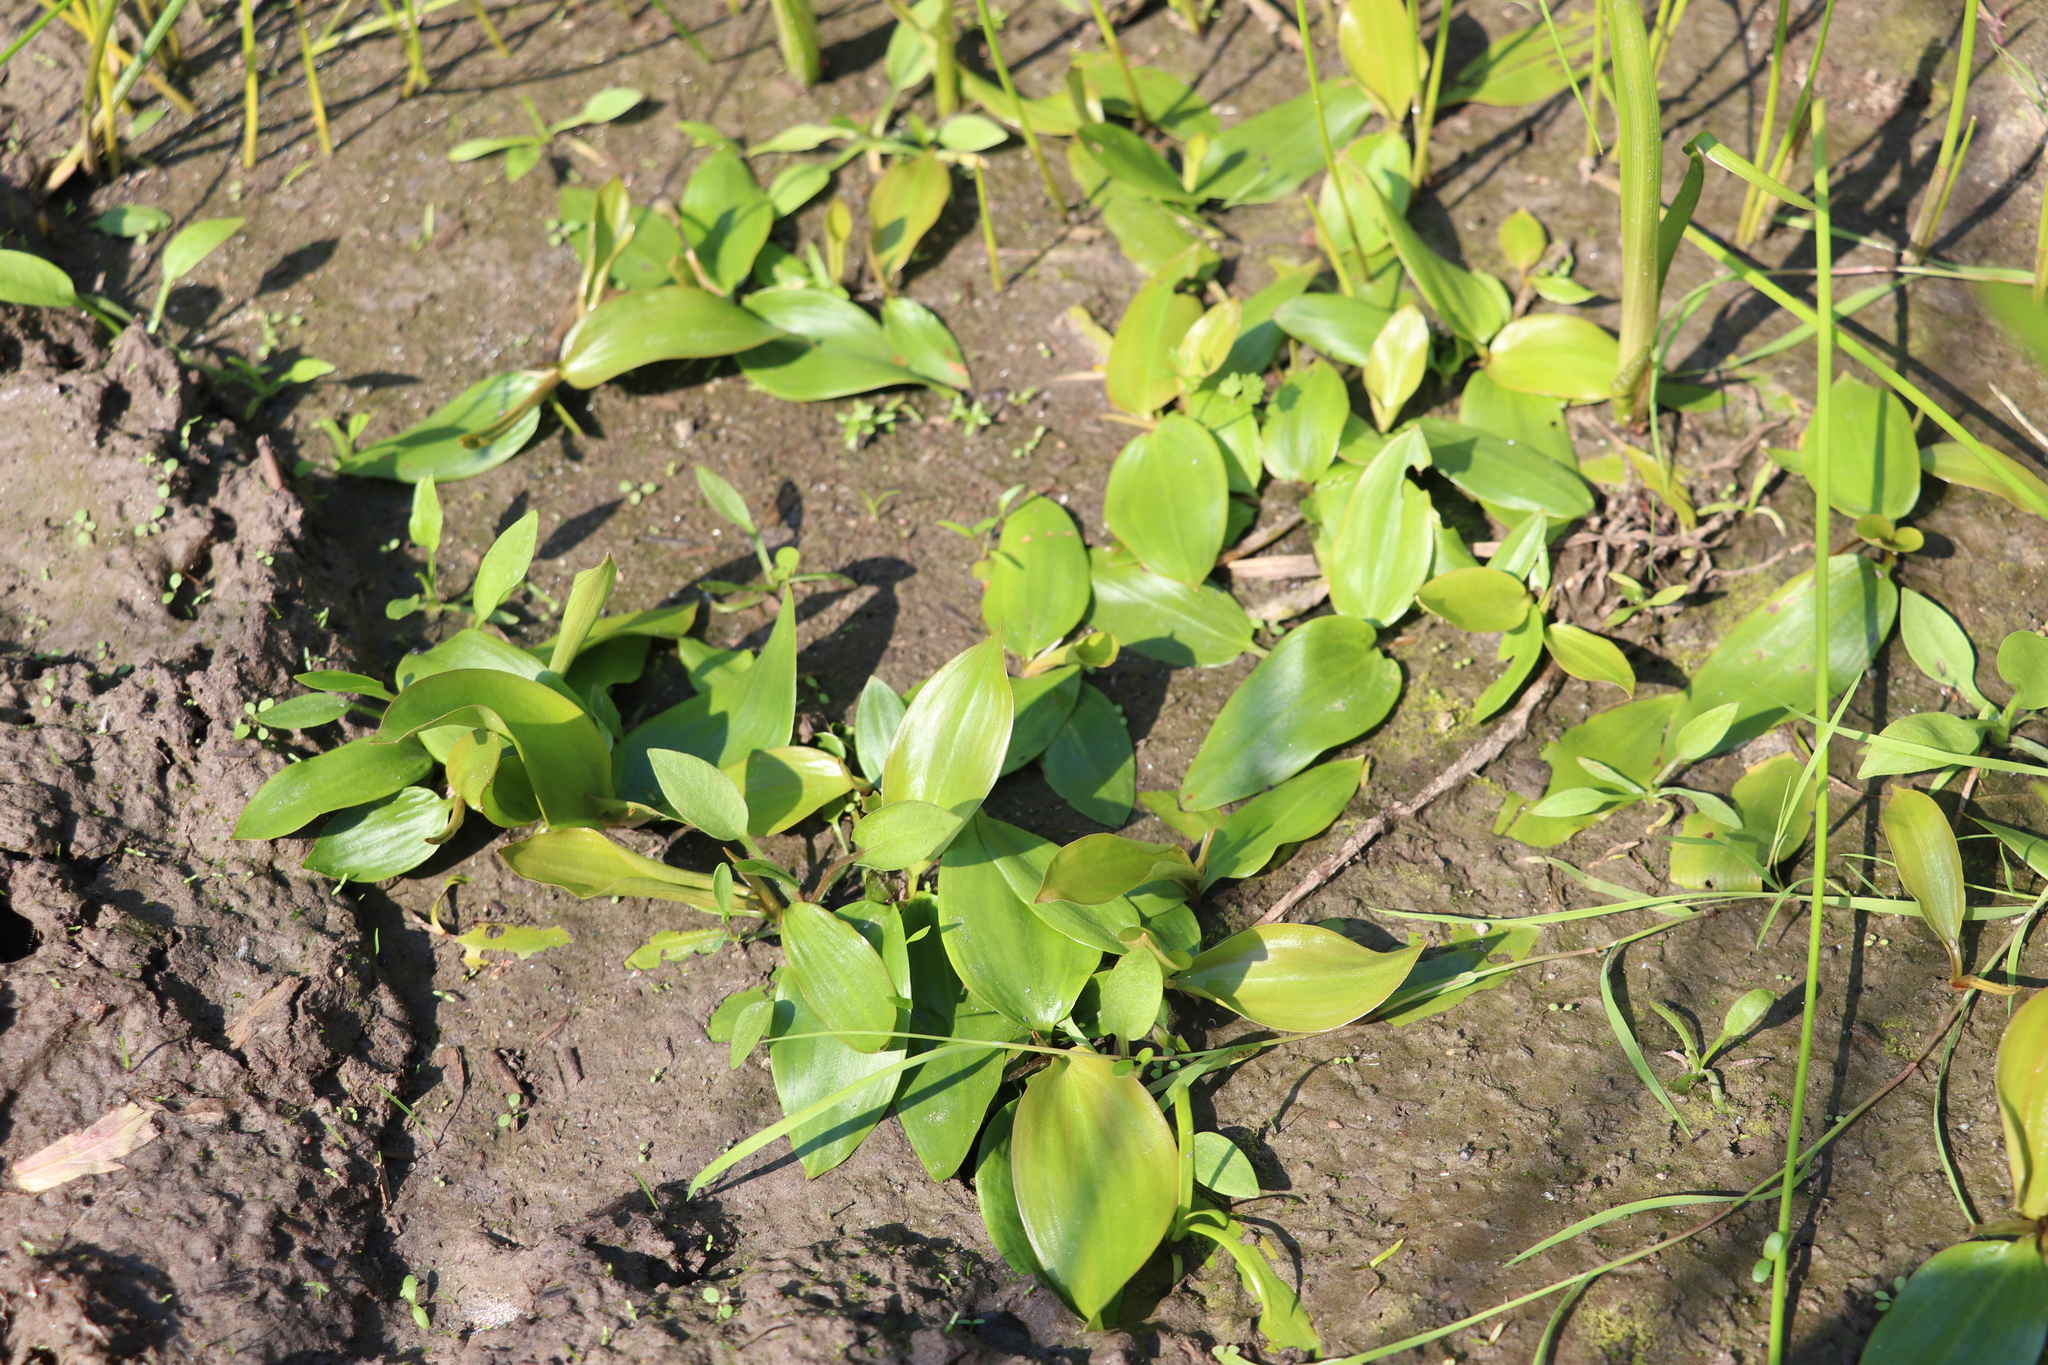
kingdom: Plantae
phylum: Tracheophyta
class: Liliopsida
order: Alismatales
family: Potamogetonaceae
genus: Potamogeton
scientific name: Potamogeton gramineus
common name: Various-leaved pondweed
